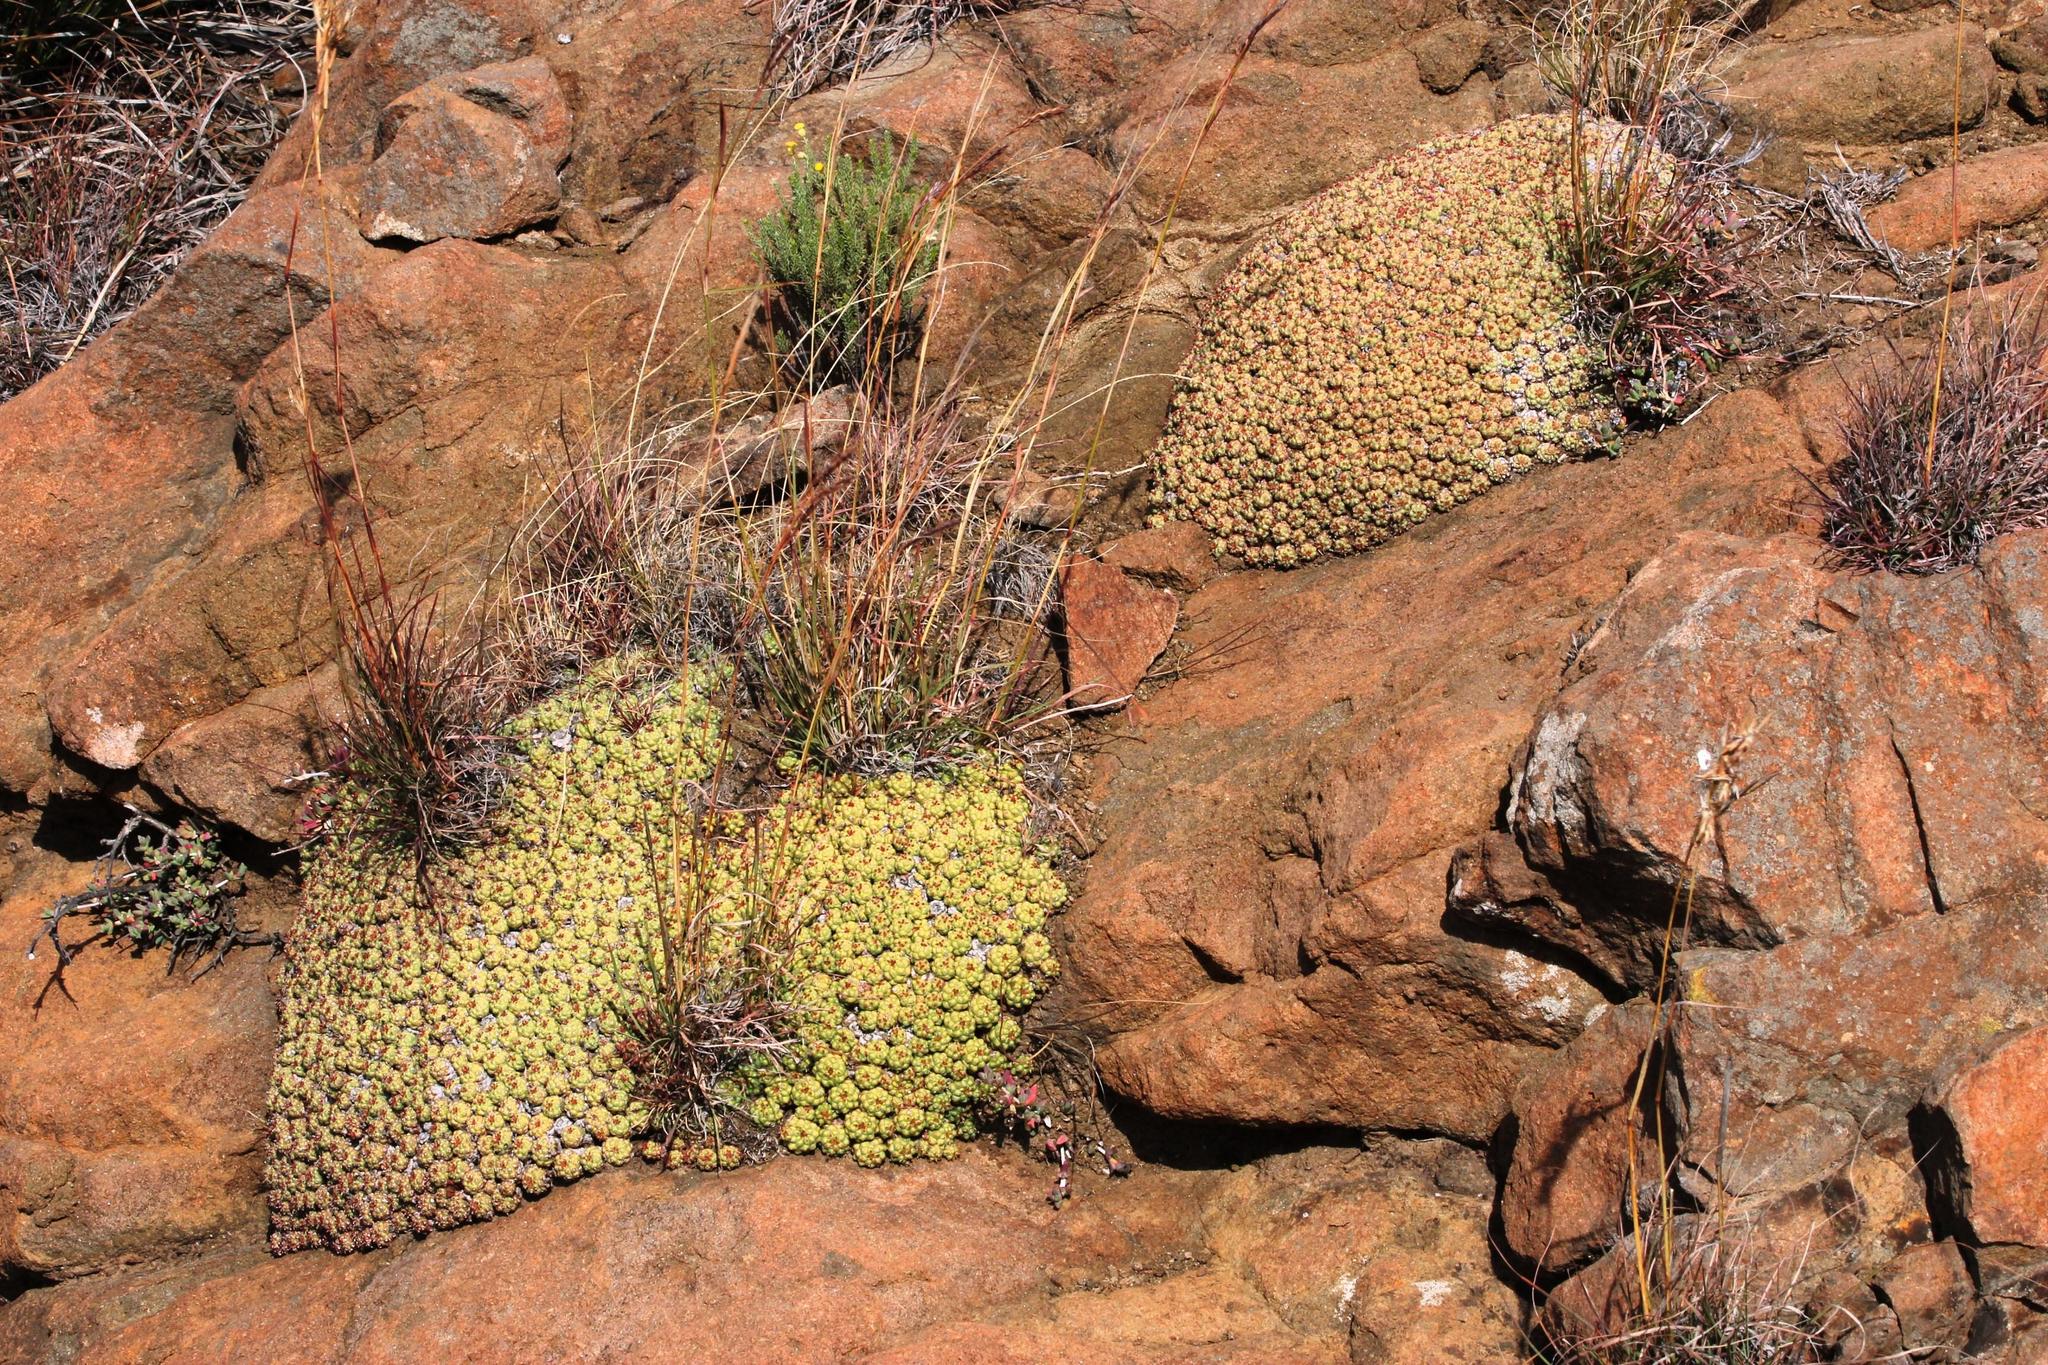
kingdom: Plantae
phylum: Tracheophyta
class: Magnoliopsida
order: Malpighiales
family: Euphorbiaceae
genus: Euphorbia
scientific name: Euphorbia clavarioides
